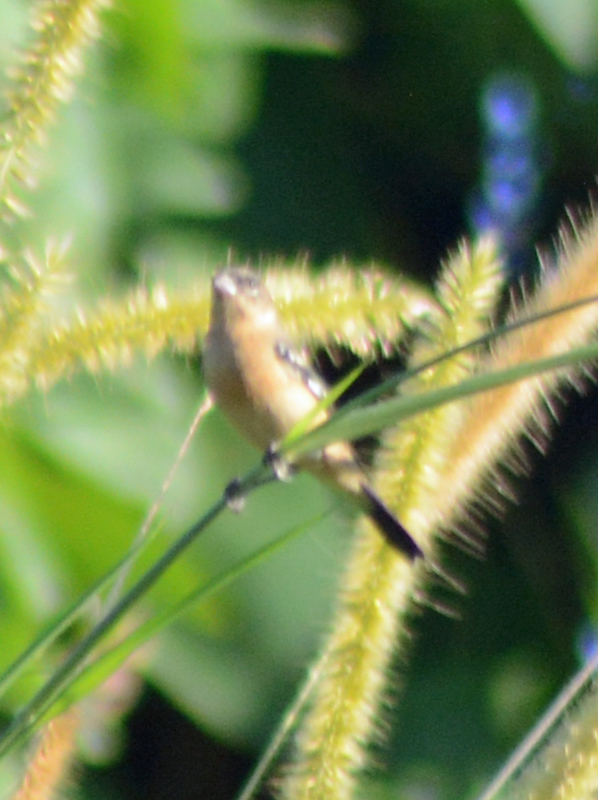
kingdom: Animalia
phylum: Chordata
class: Aves
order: Passeriformes
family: Thraupidae
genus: Sporophila
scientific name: Sporophila morelleti
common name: Morelet's seedeater
